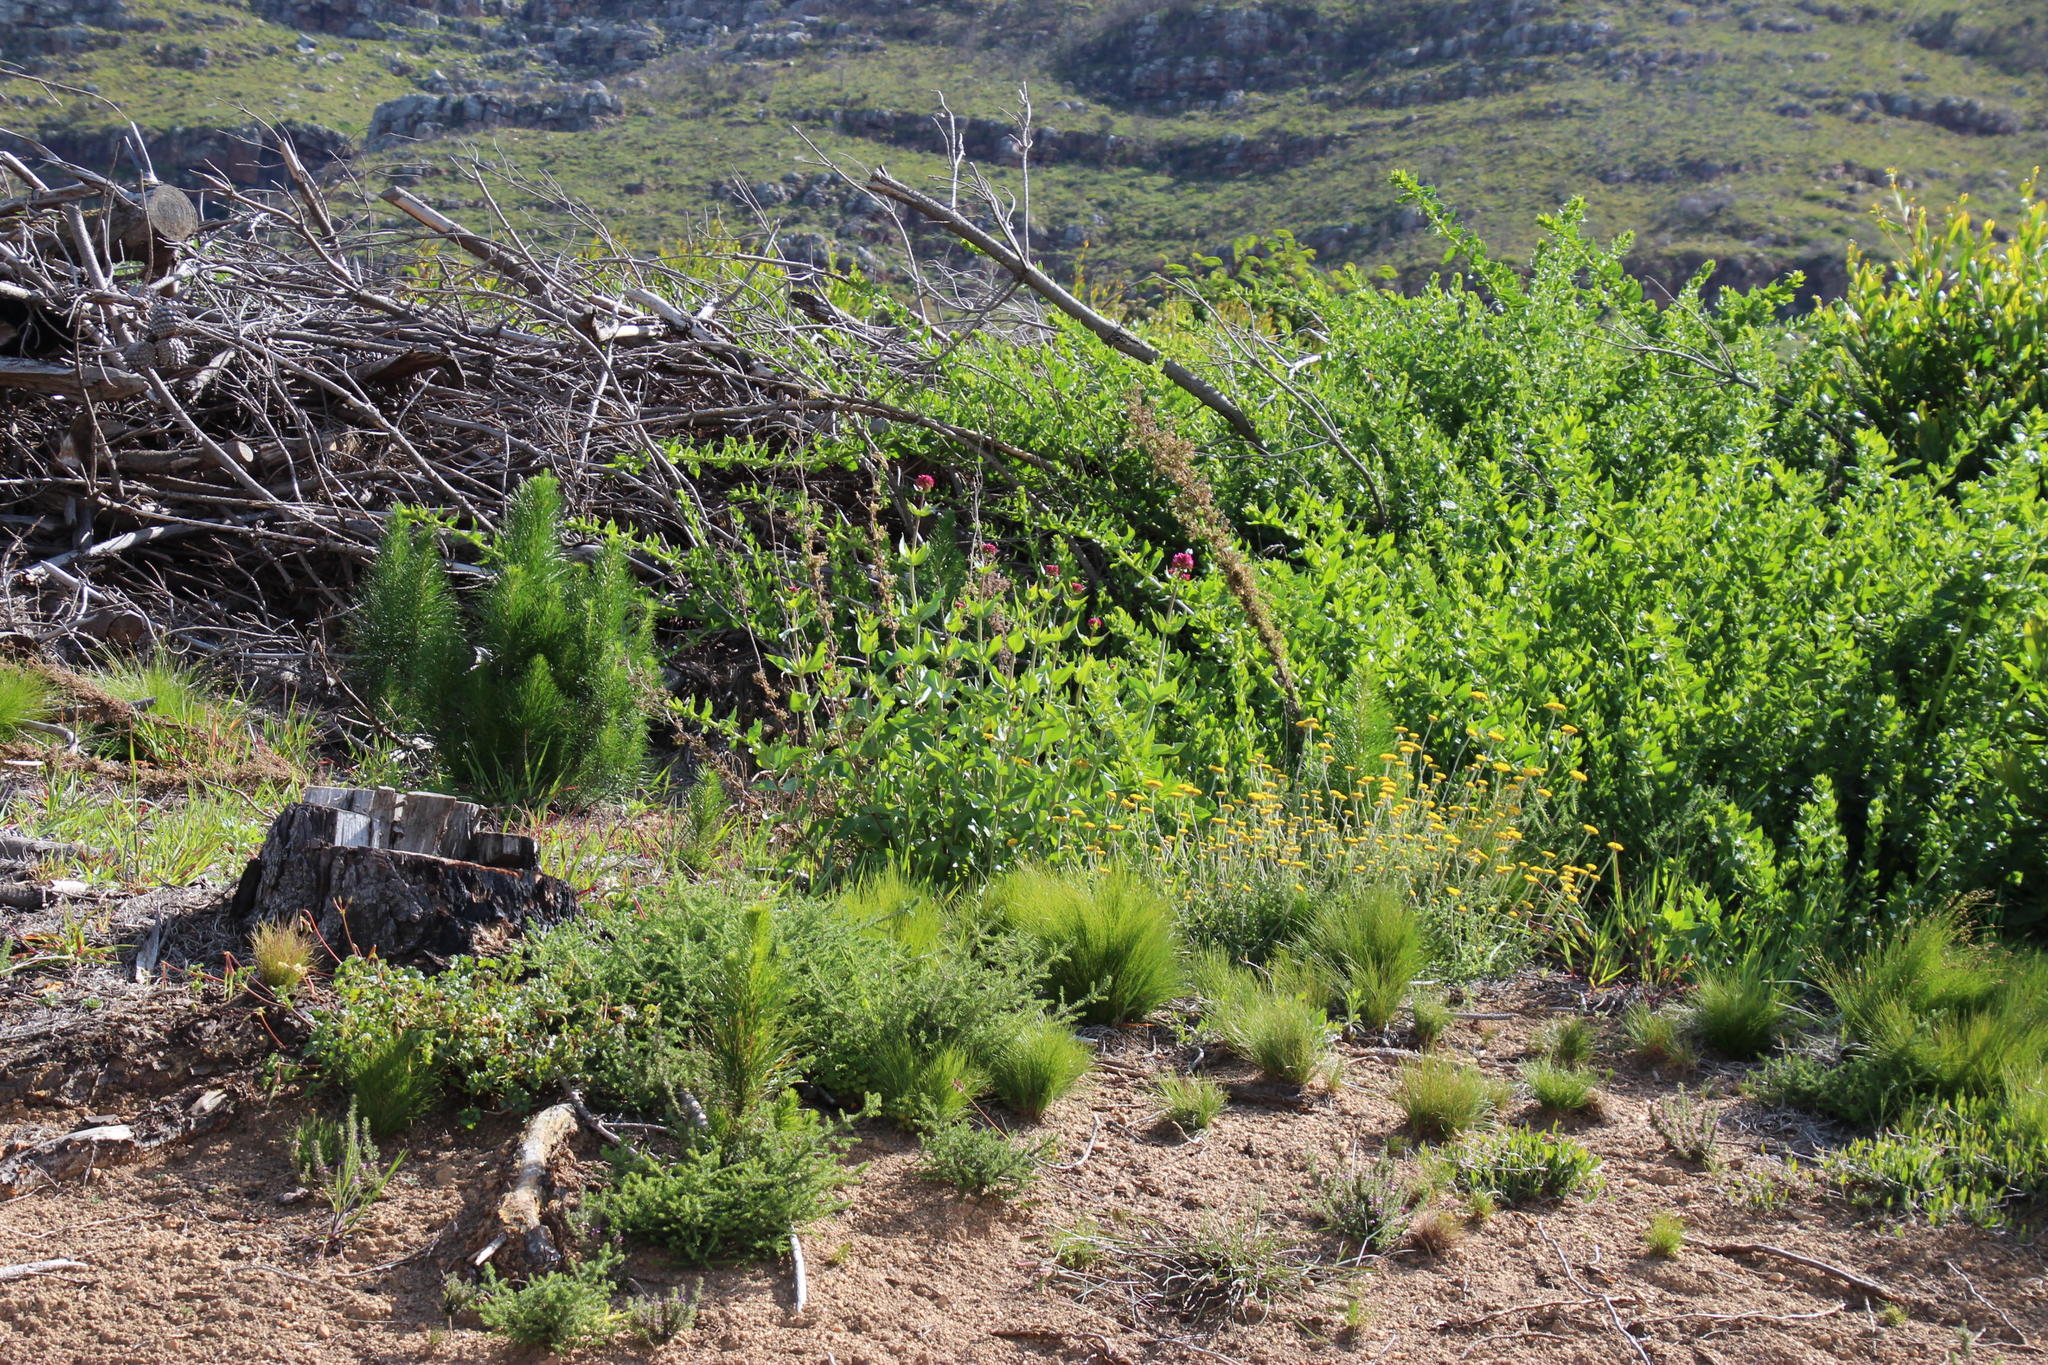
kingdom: Plantae
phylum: Tracheophyta
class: Magnoliopsida
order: Dipsacales
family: Caprifoliaceae
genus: Centranthus
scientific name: Centranthus ruber
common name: Red valerian
